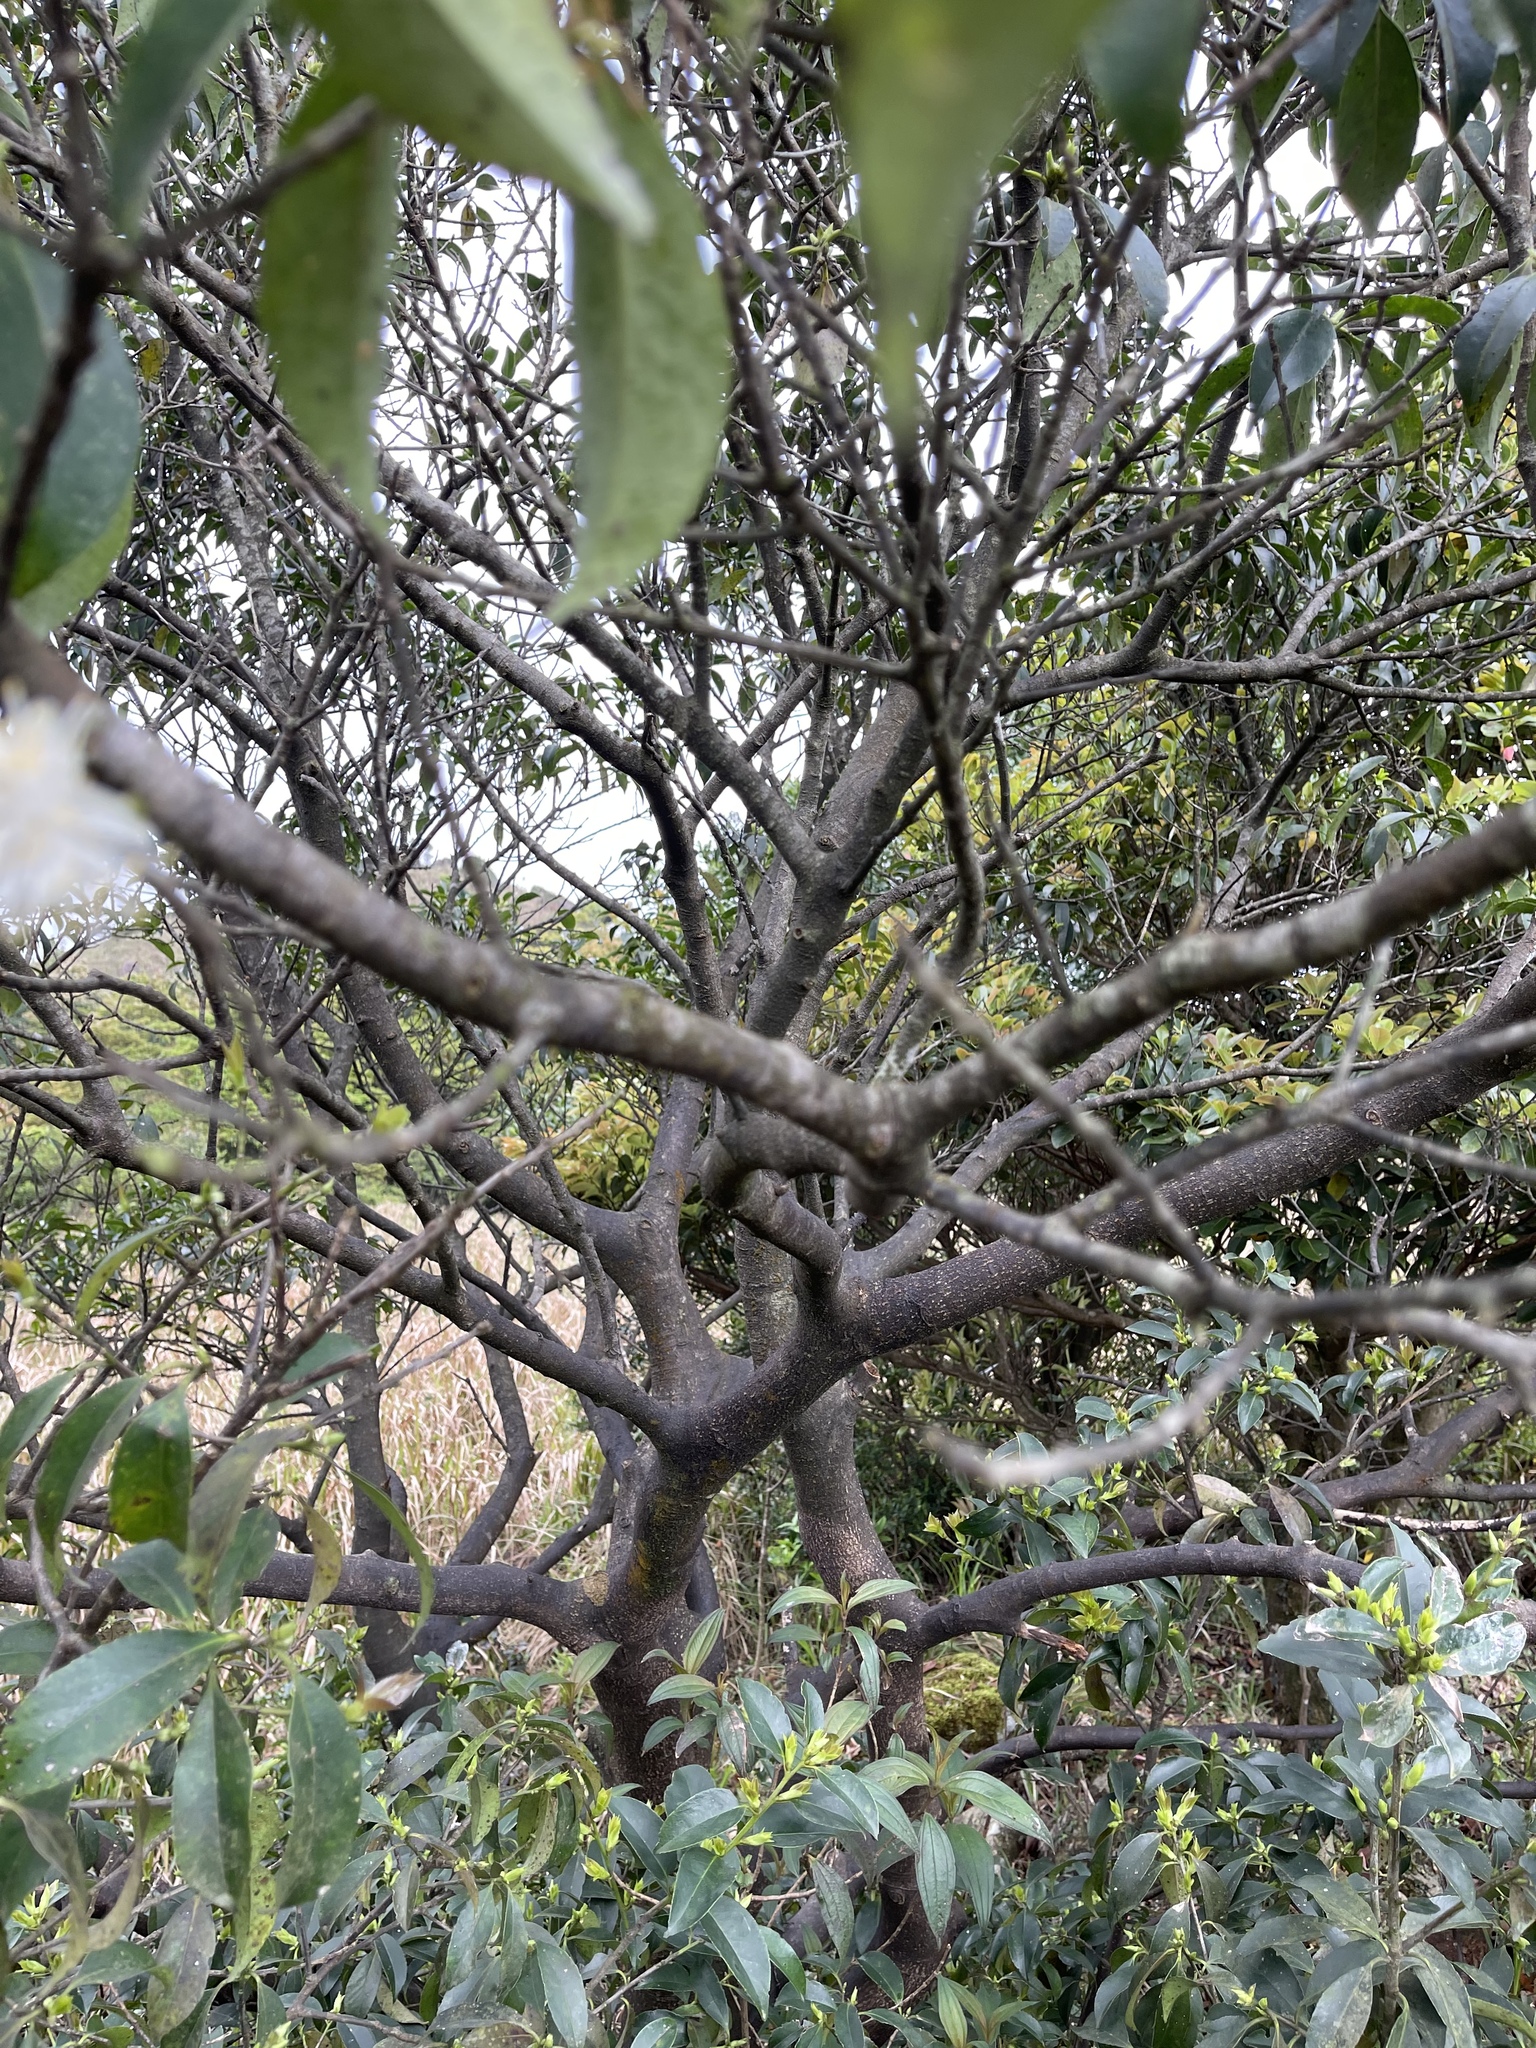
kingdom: Plantae
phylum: Tracheophyta
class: Magnoliopsida
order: Ericales
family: Symplocaceae
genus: Symplocos
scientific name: Symplocos sumuntia
